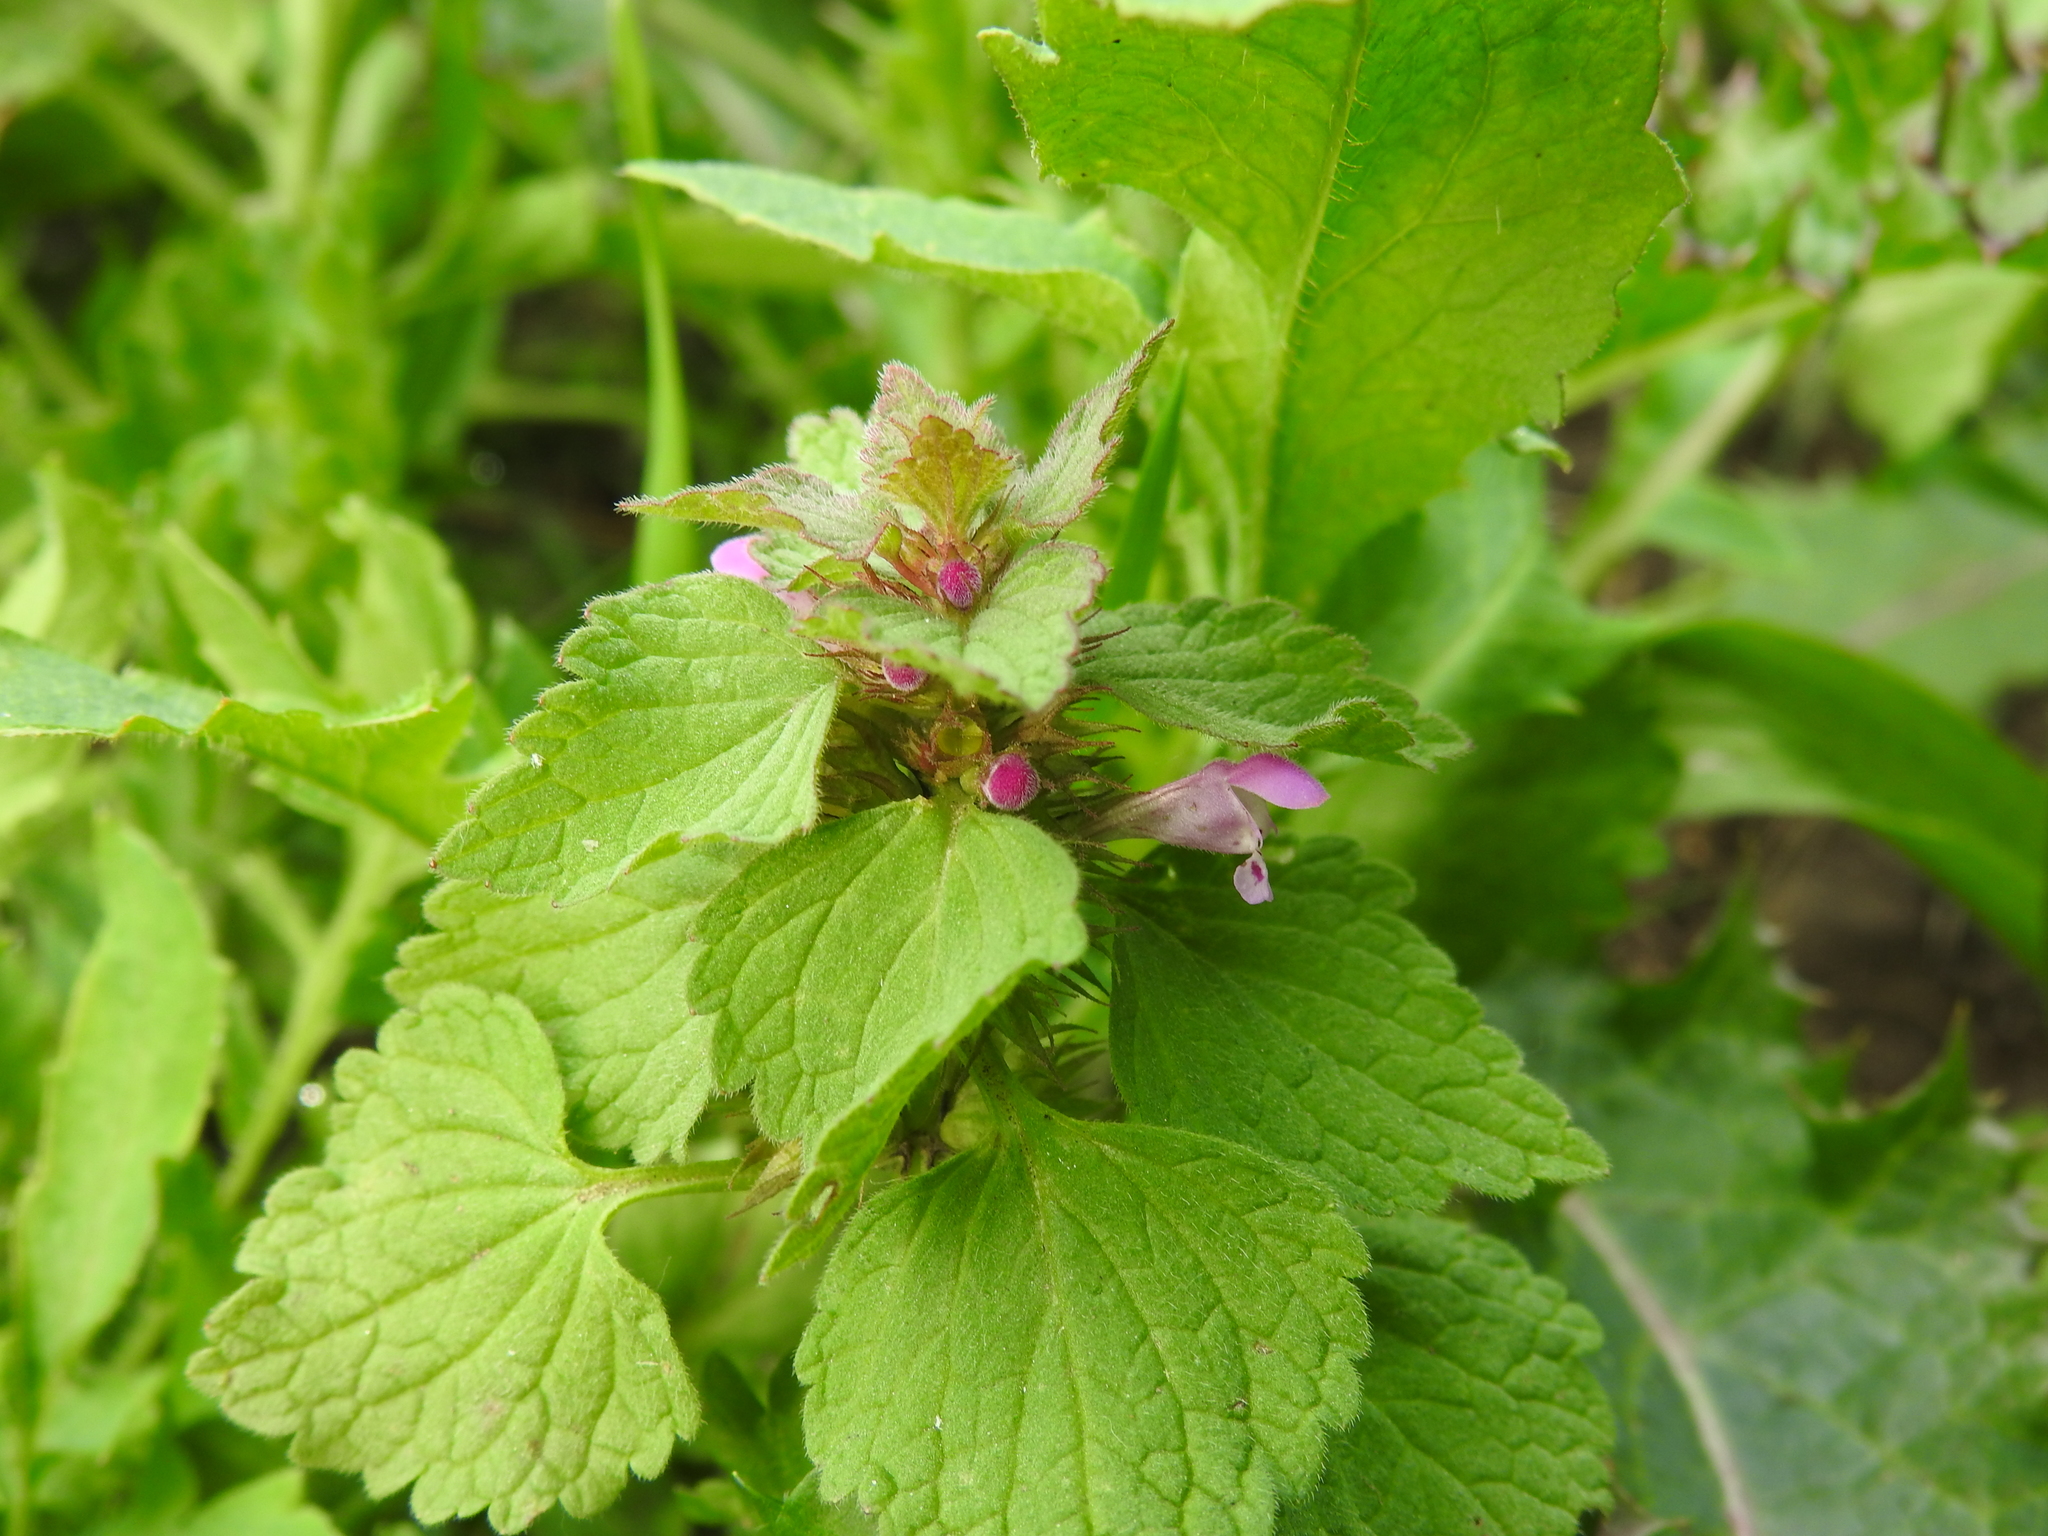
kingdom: Plantae
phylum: Tracheophyta
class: Magnoliopsida
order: Lamiales
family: Lamiaceae
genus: Lamium
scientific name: Lamium purpureum
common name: Red dead-nettle
